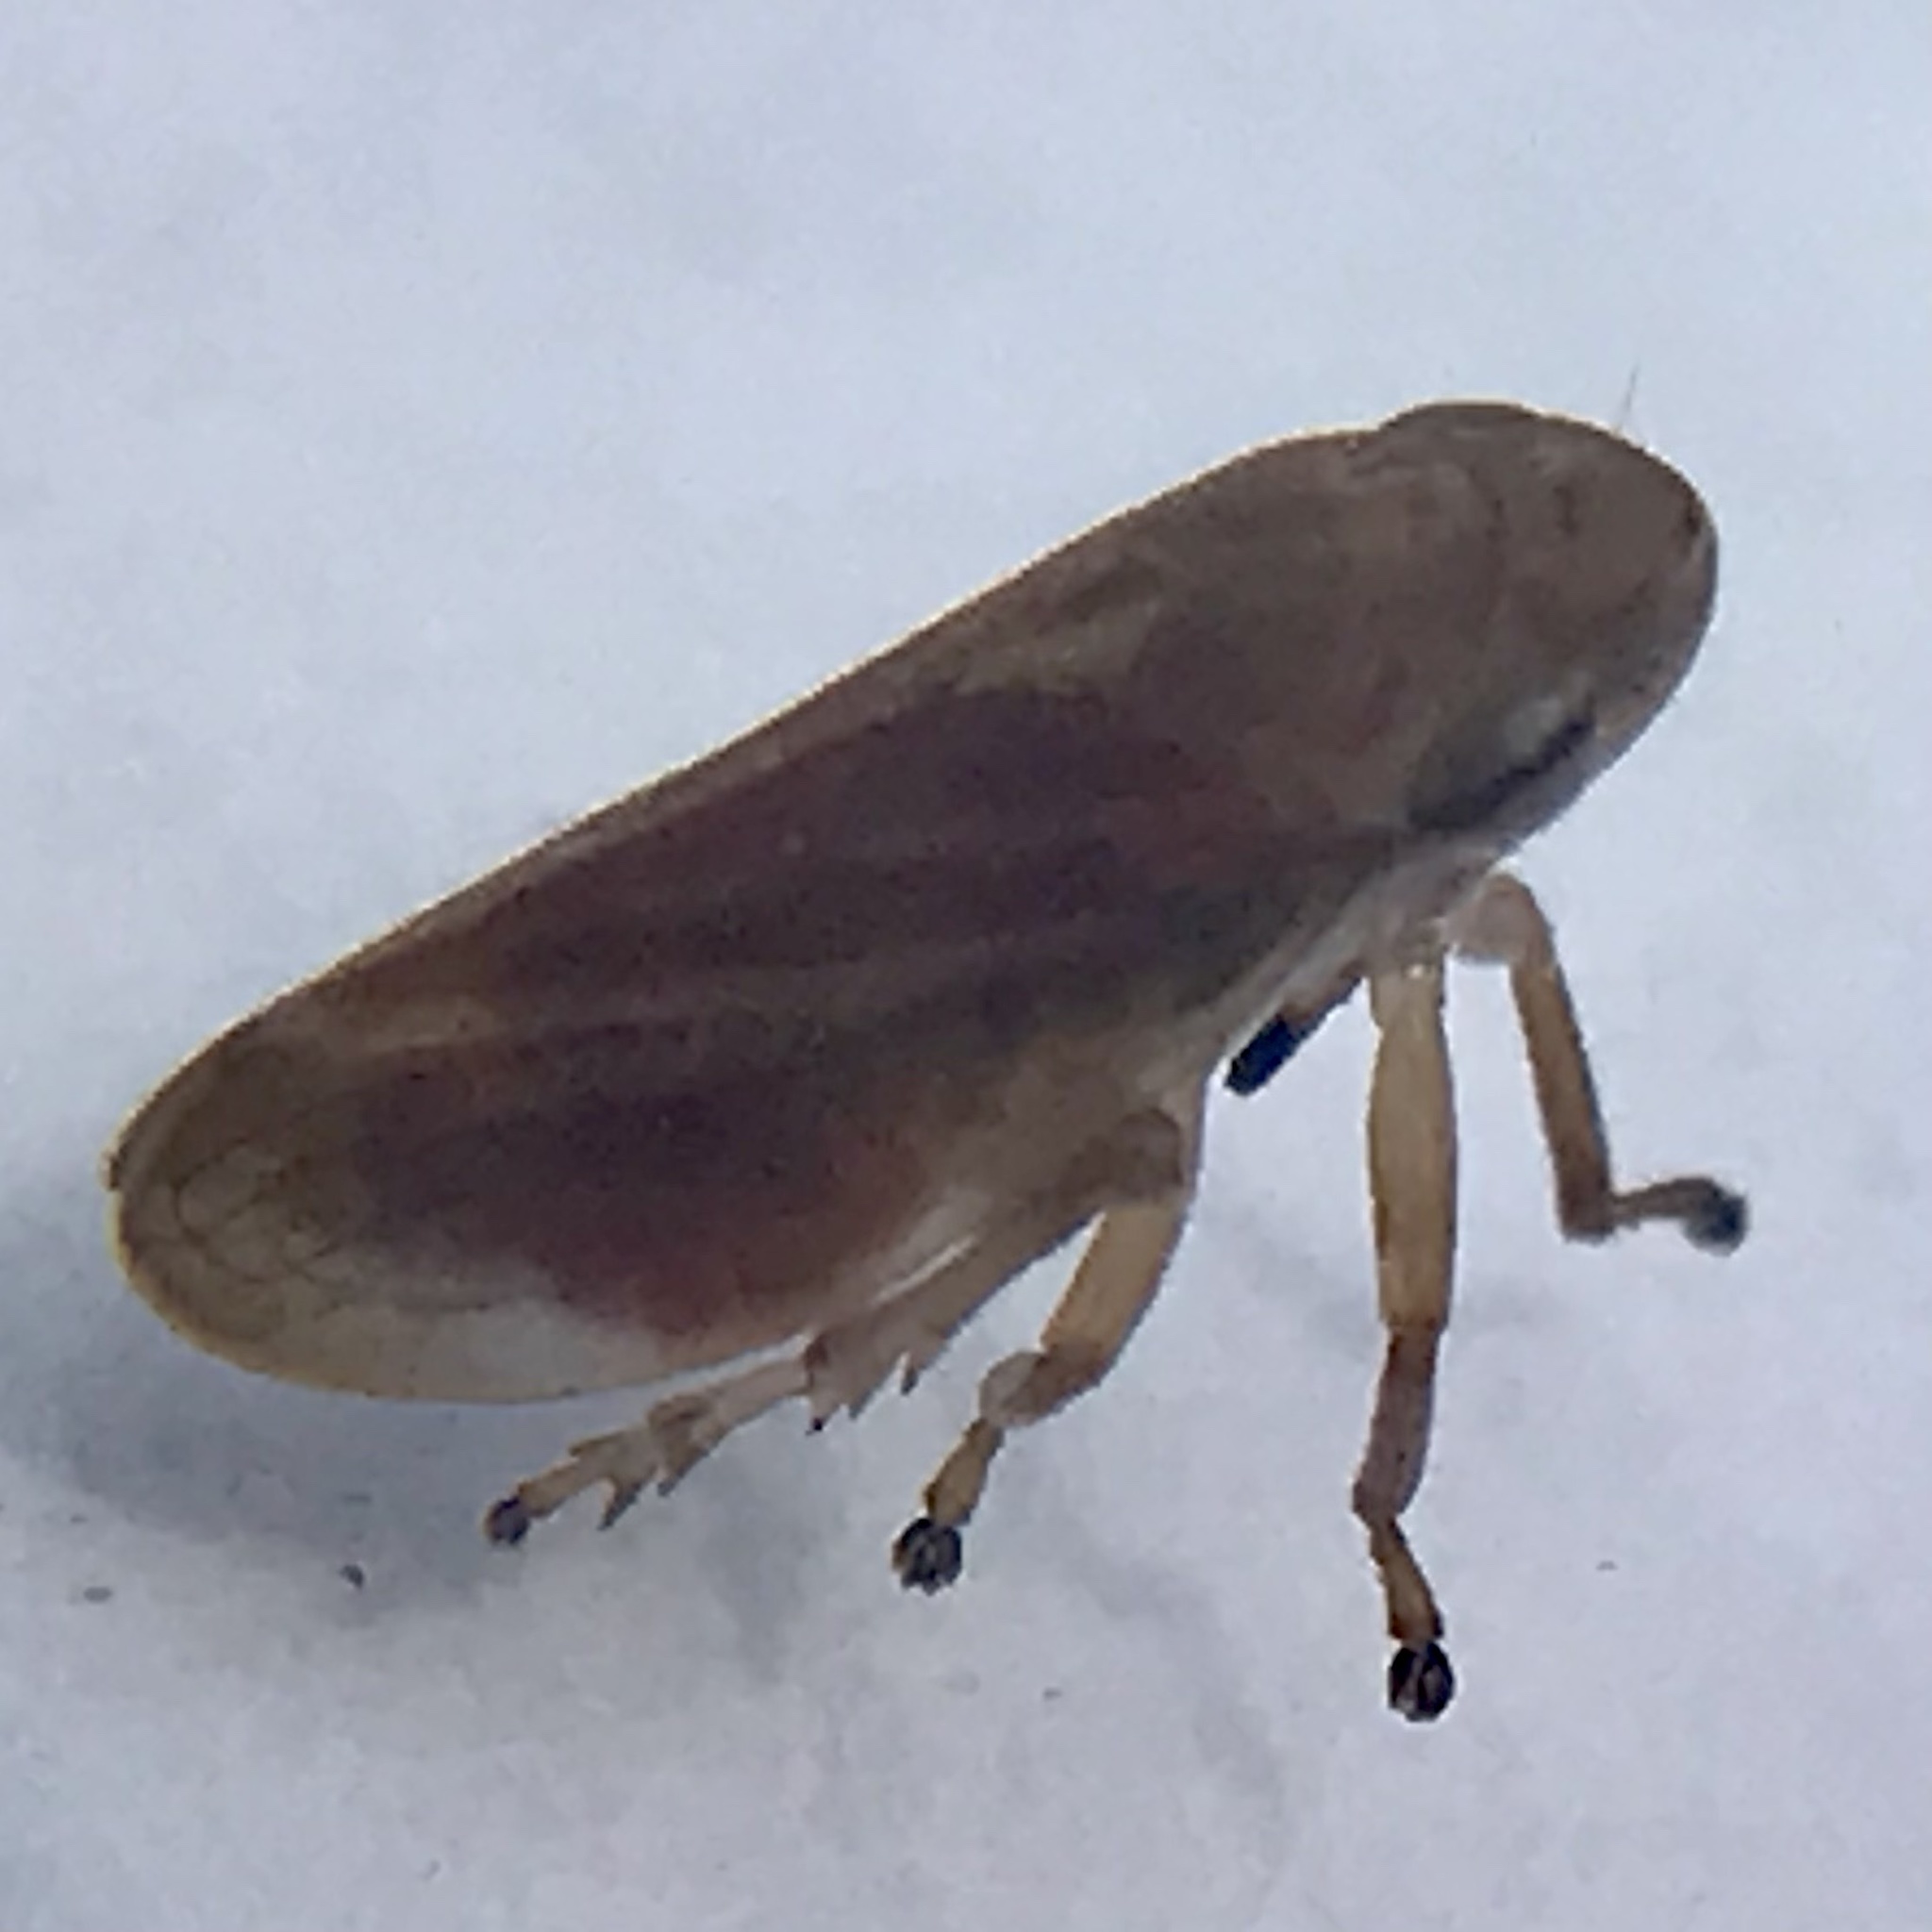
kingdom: Animalia
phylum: Arthropoda
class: Insecta
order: Hemiptera
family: Aphrophoridae
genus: Philaenus
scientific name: Philaenus spumarius
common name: Meadow spittlebug
